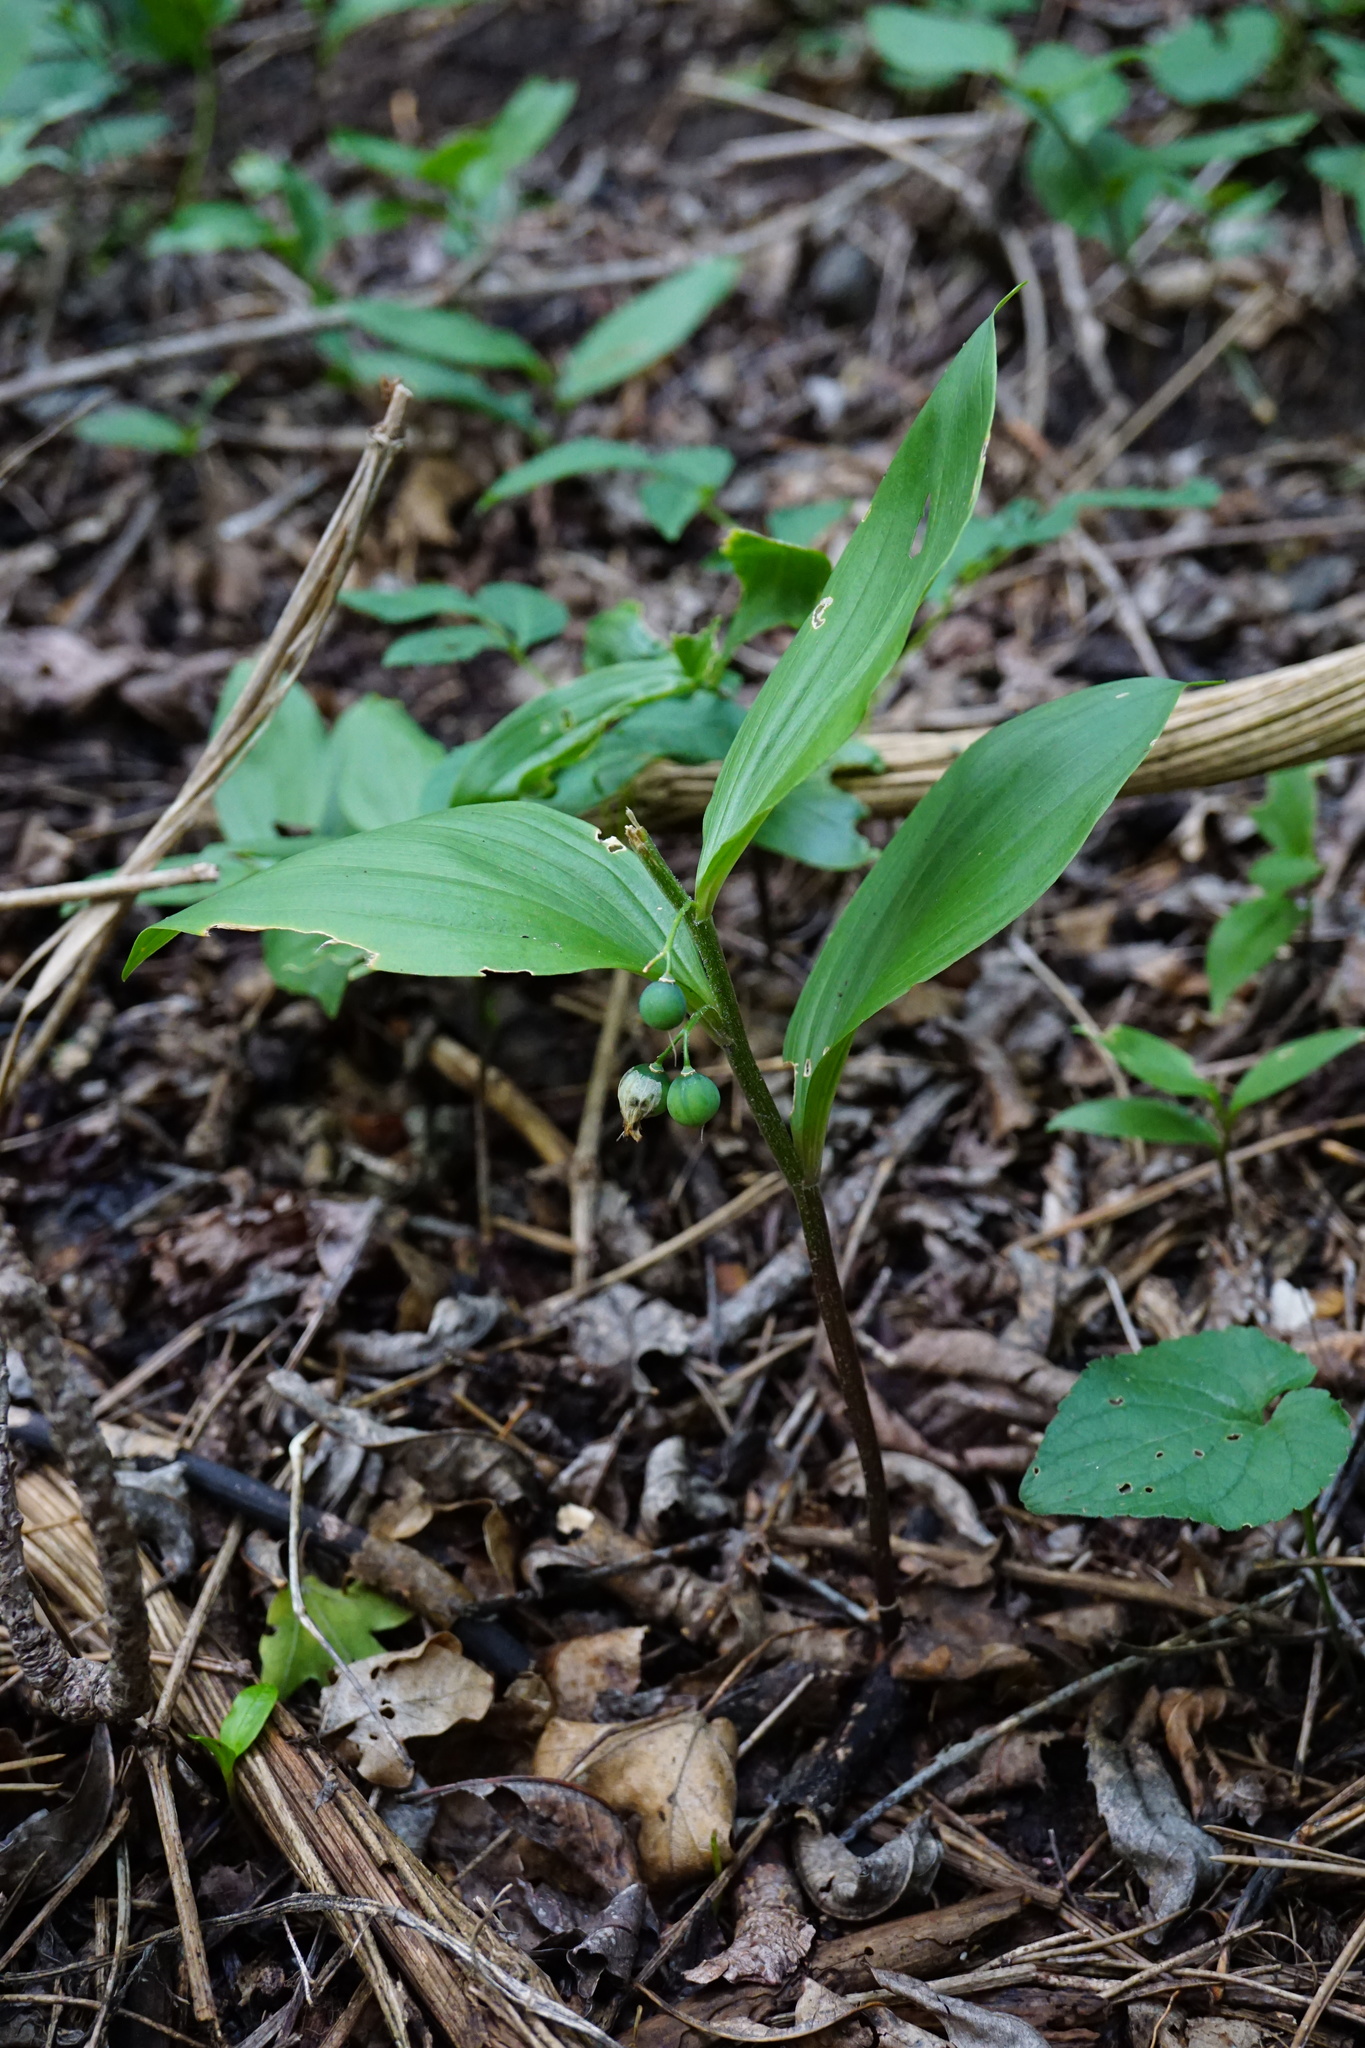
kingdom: Plantae
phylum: Tracheophyta
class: Liliopsida
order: Asparagales
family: Asparagaceae
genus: Polygonatum
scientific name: Polygonatum latifolium
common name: Broadleaf solomon's seal
